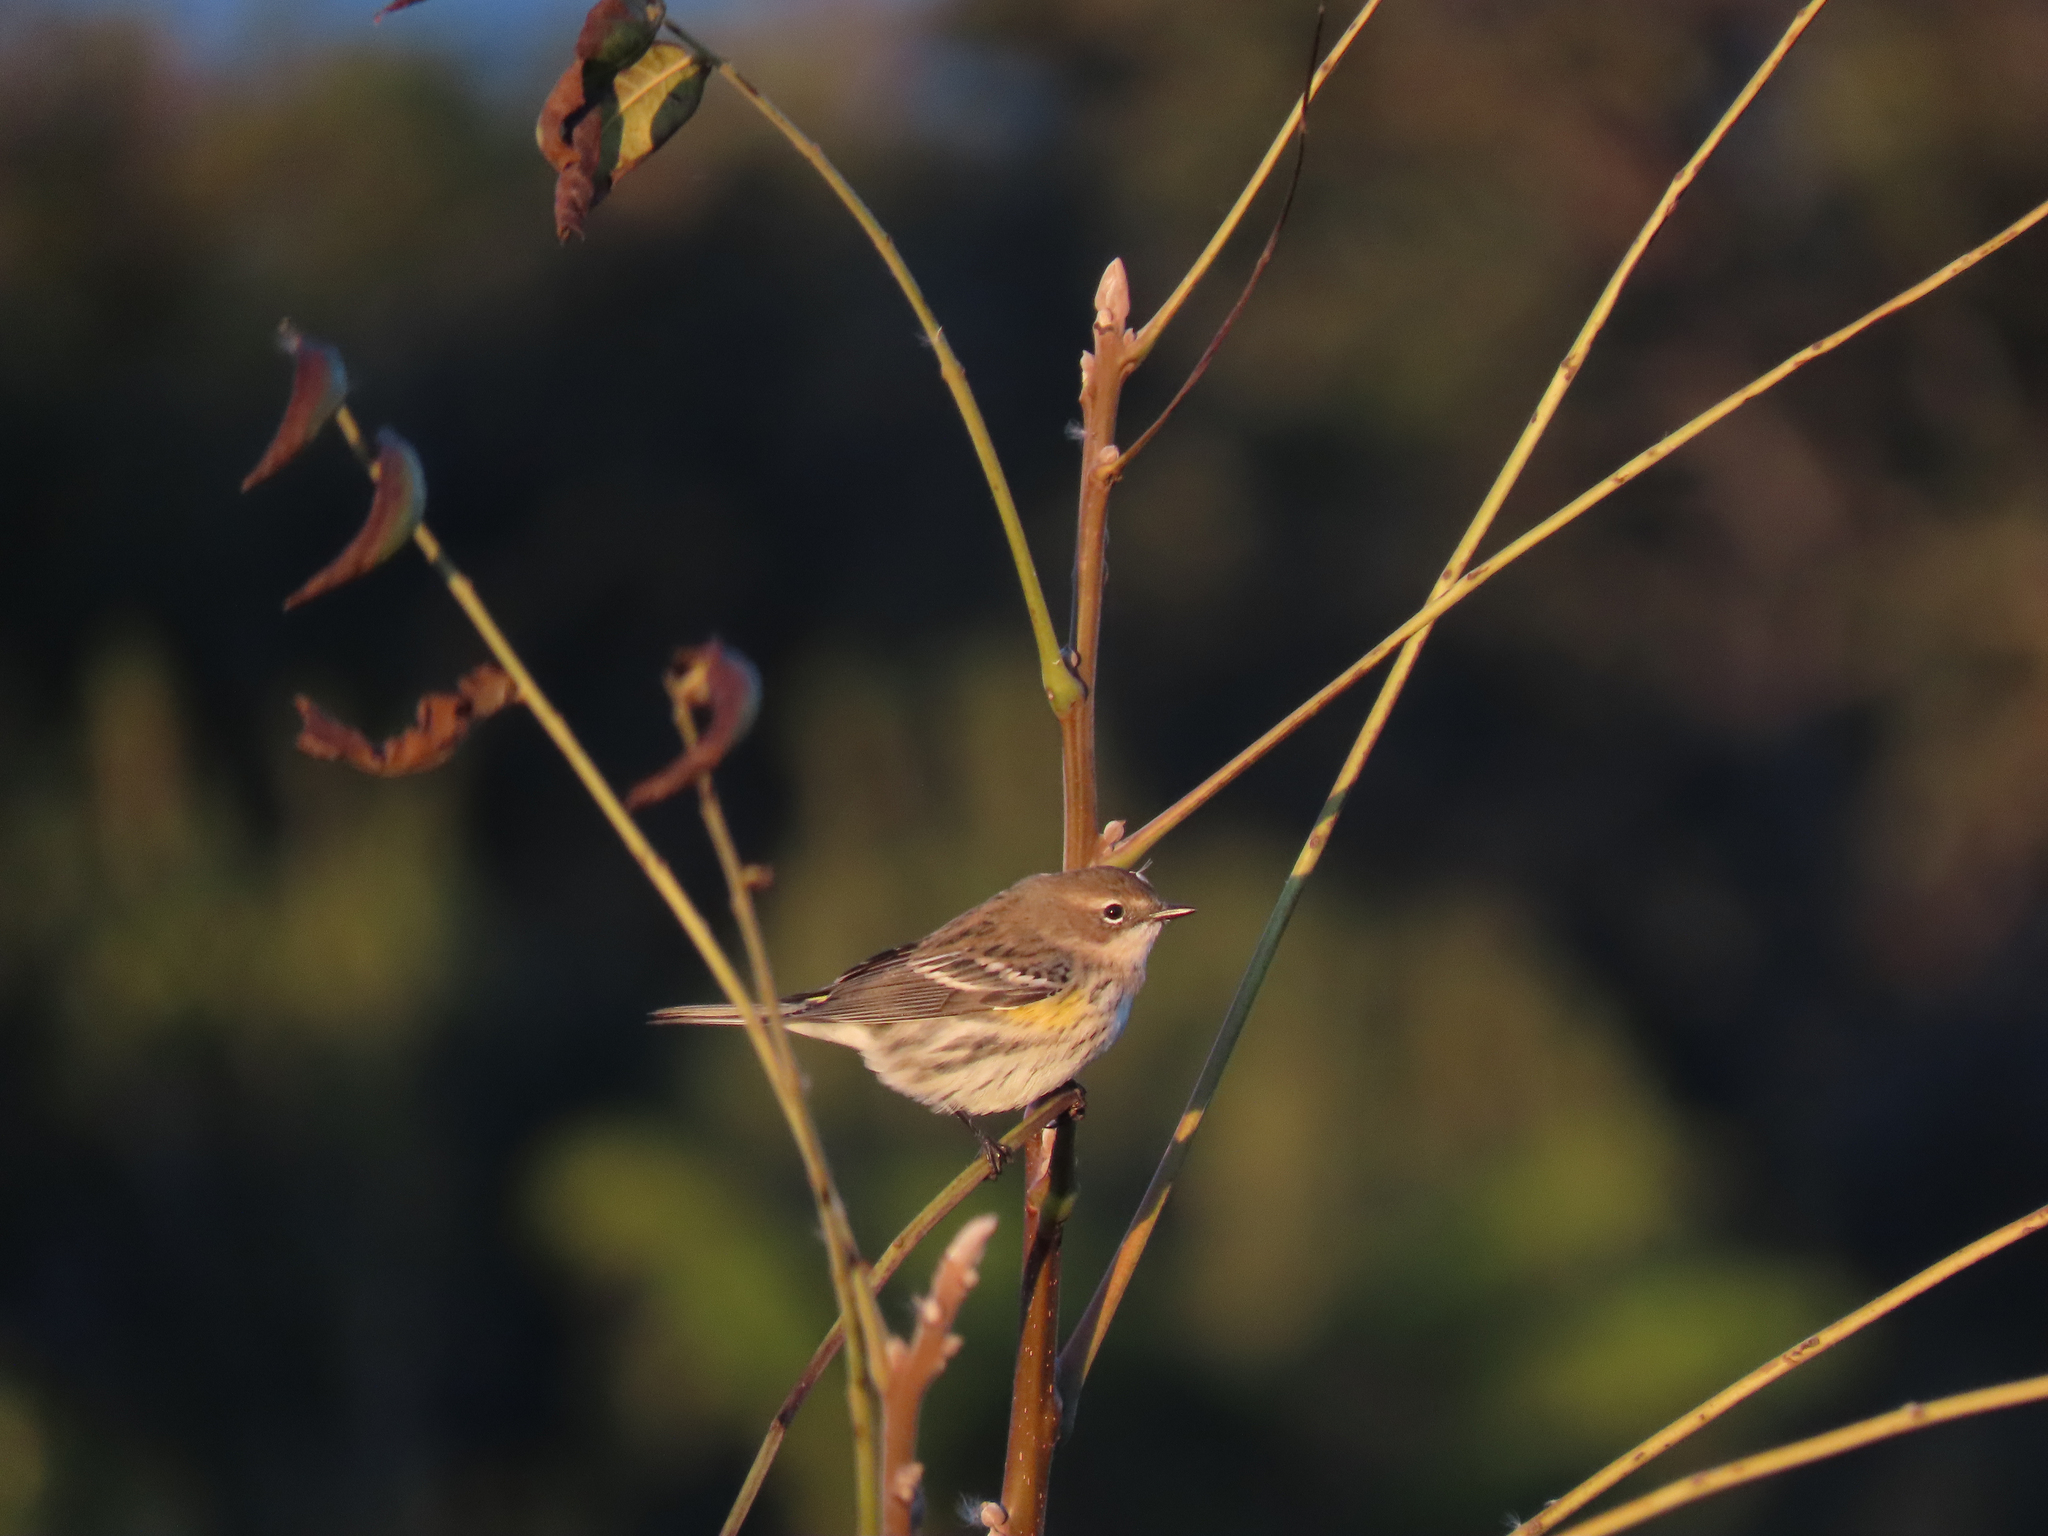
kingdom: Animalia
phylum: Chordata
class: Aves
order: Passeriformes
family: Parulidae
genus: Setophaga
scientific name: Setophaga coronata
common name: Myrtle warbler
